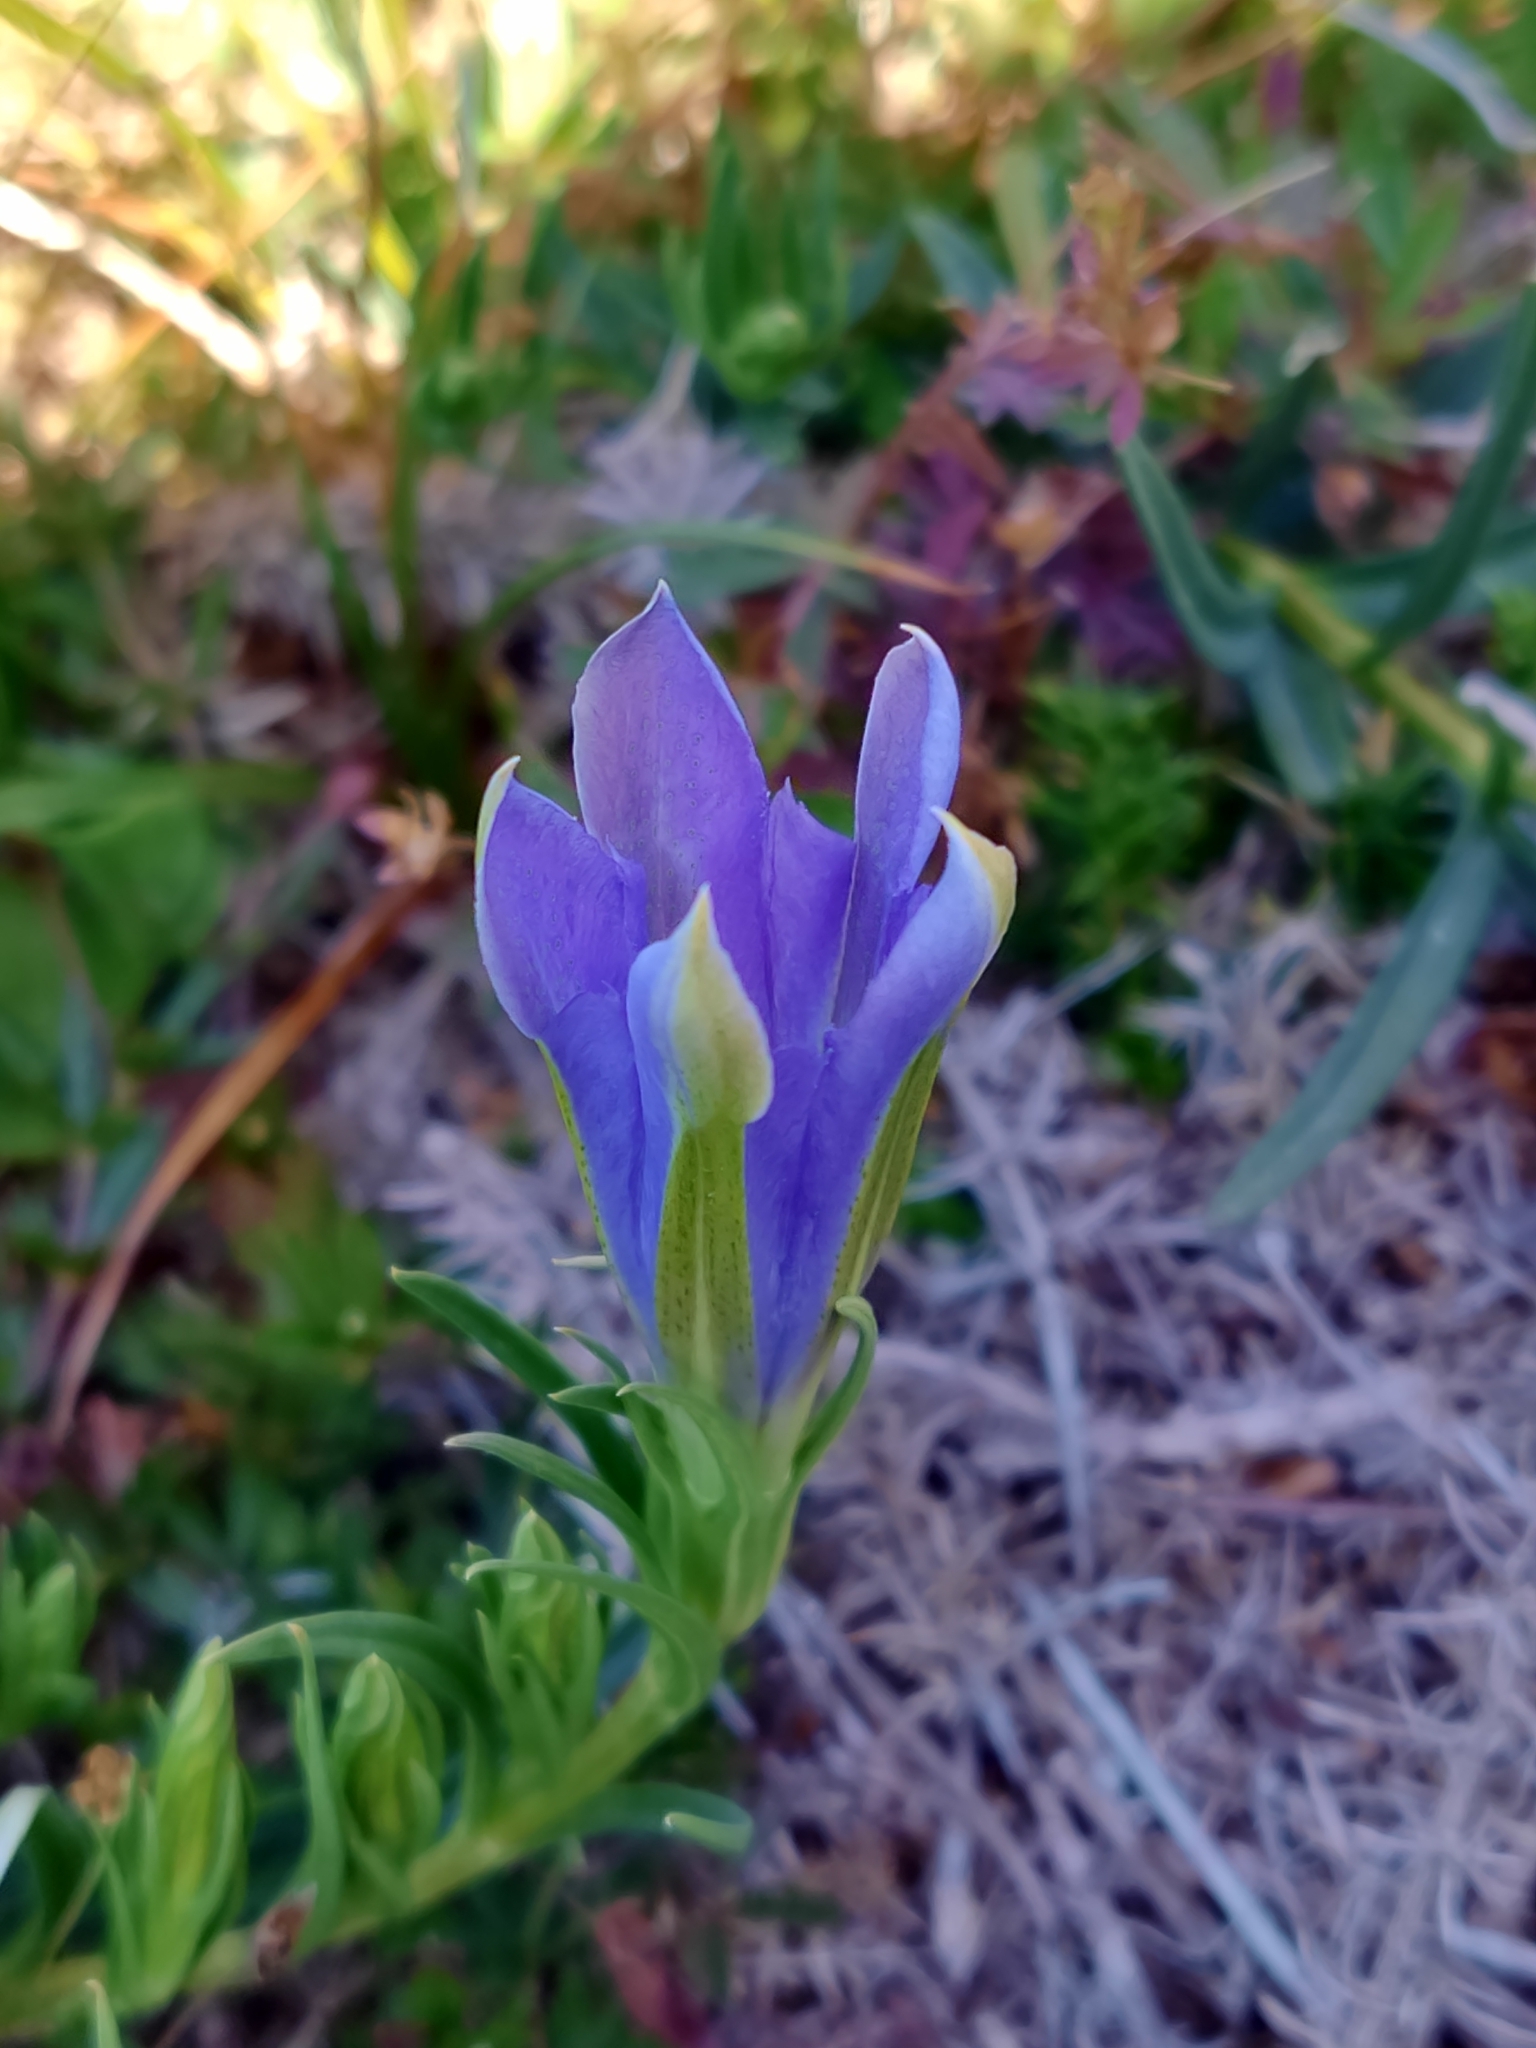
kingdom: Plantae
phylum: Tracheophyta
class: Magnoliopsida
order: Gentianales
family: Gentianaceae
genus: Gentiana
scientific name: Gentiana pneumonanthe
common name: Marsh gentian
